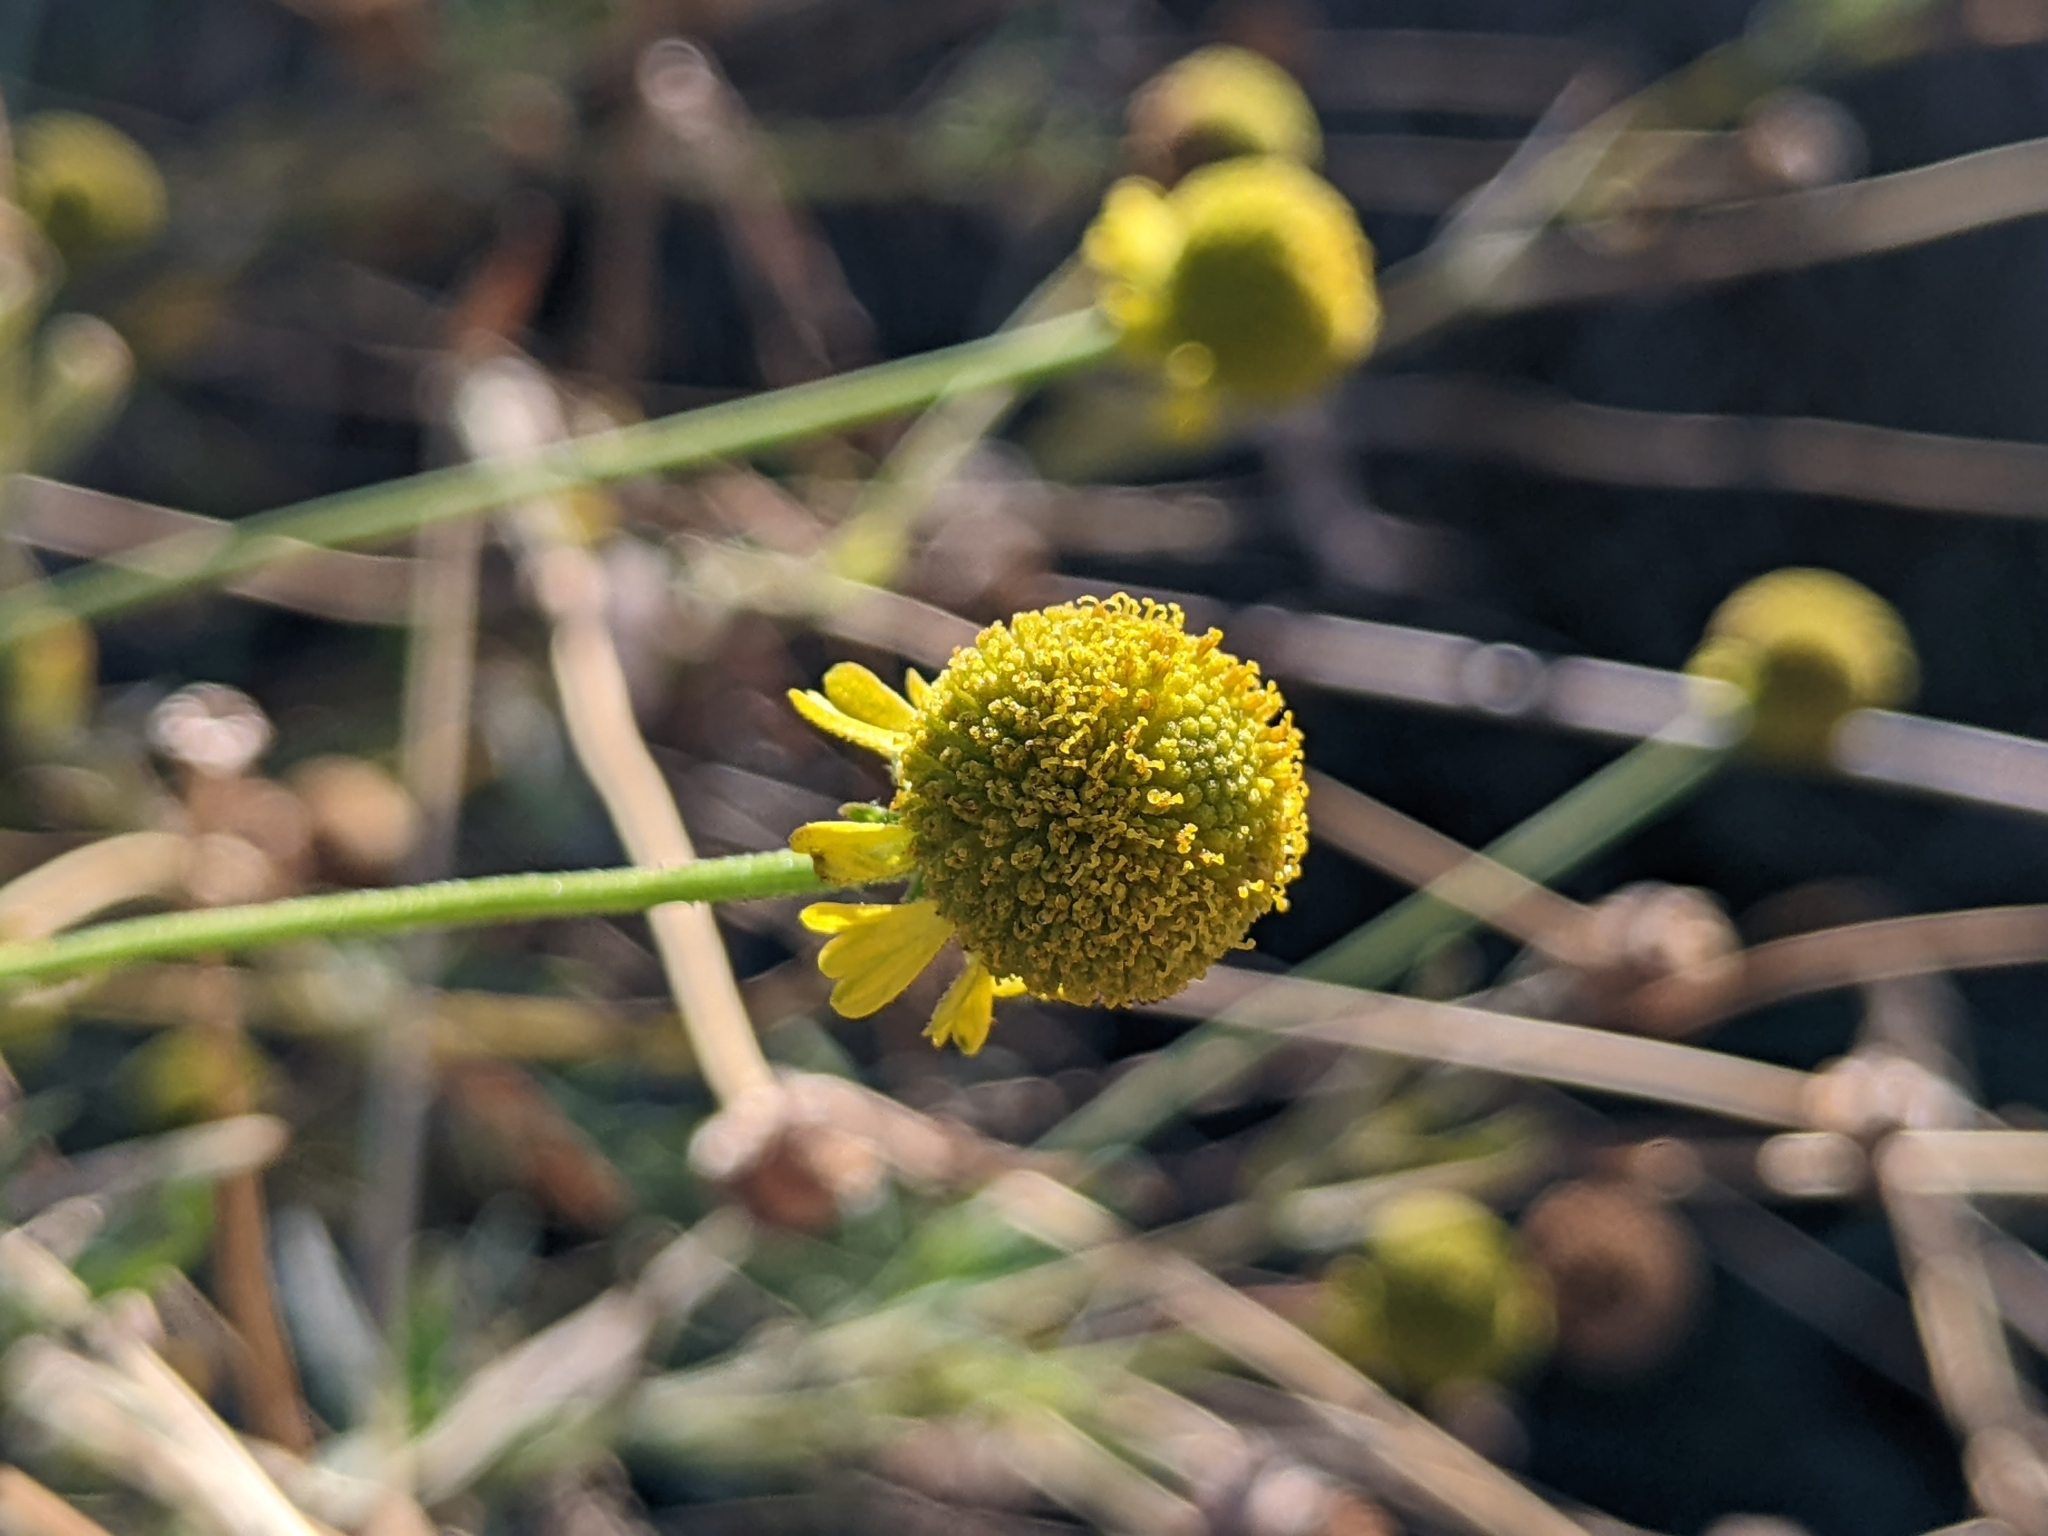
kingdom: Plantae
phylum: Tracheophyta
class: Magnoliopsida
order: Asterales
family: Asteraceae
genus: Helenium
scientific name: Helenium puberulum
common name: Sneezewort
